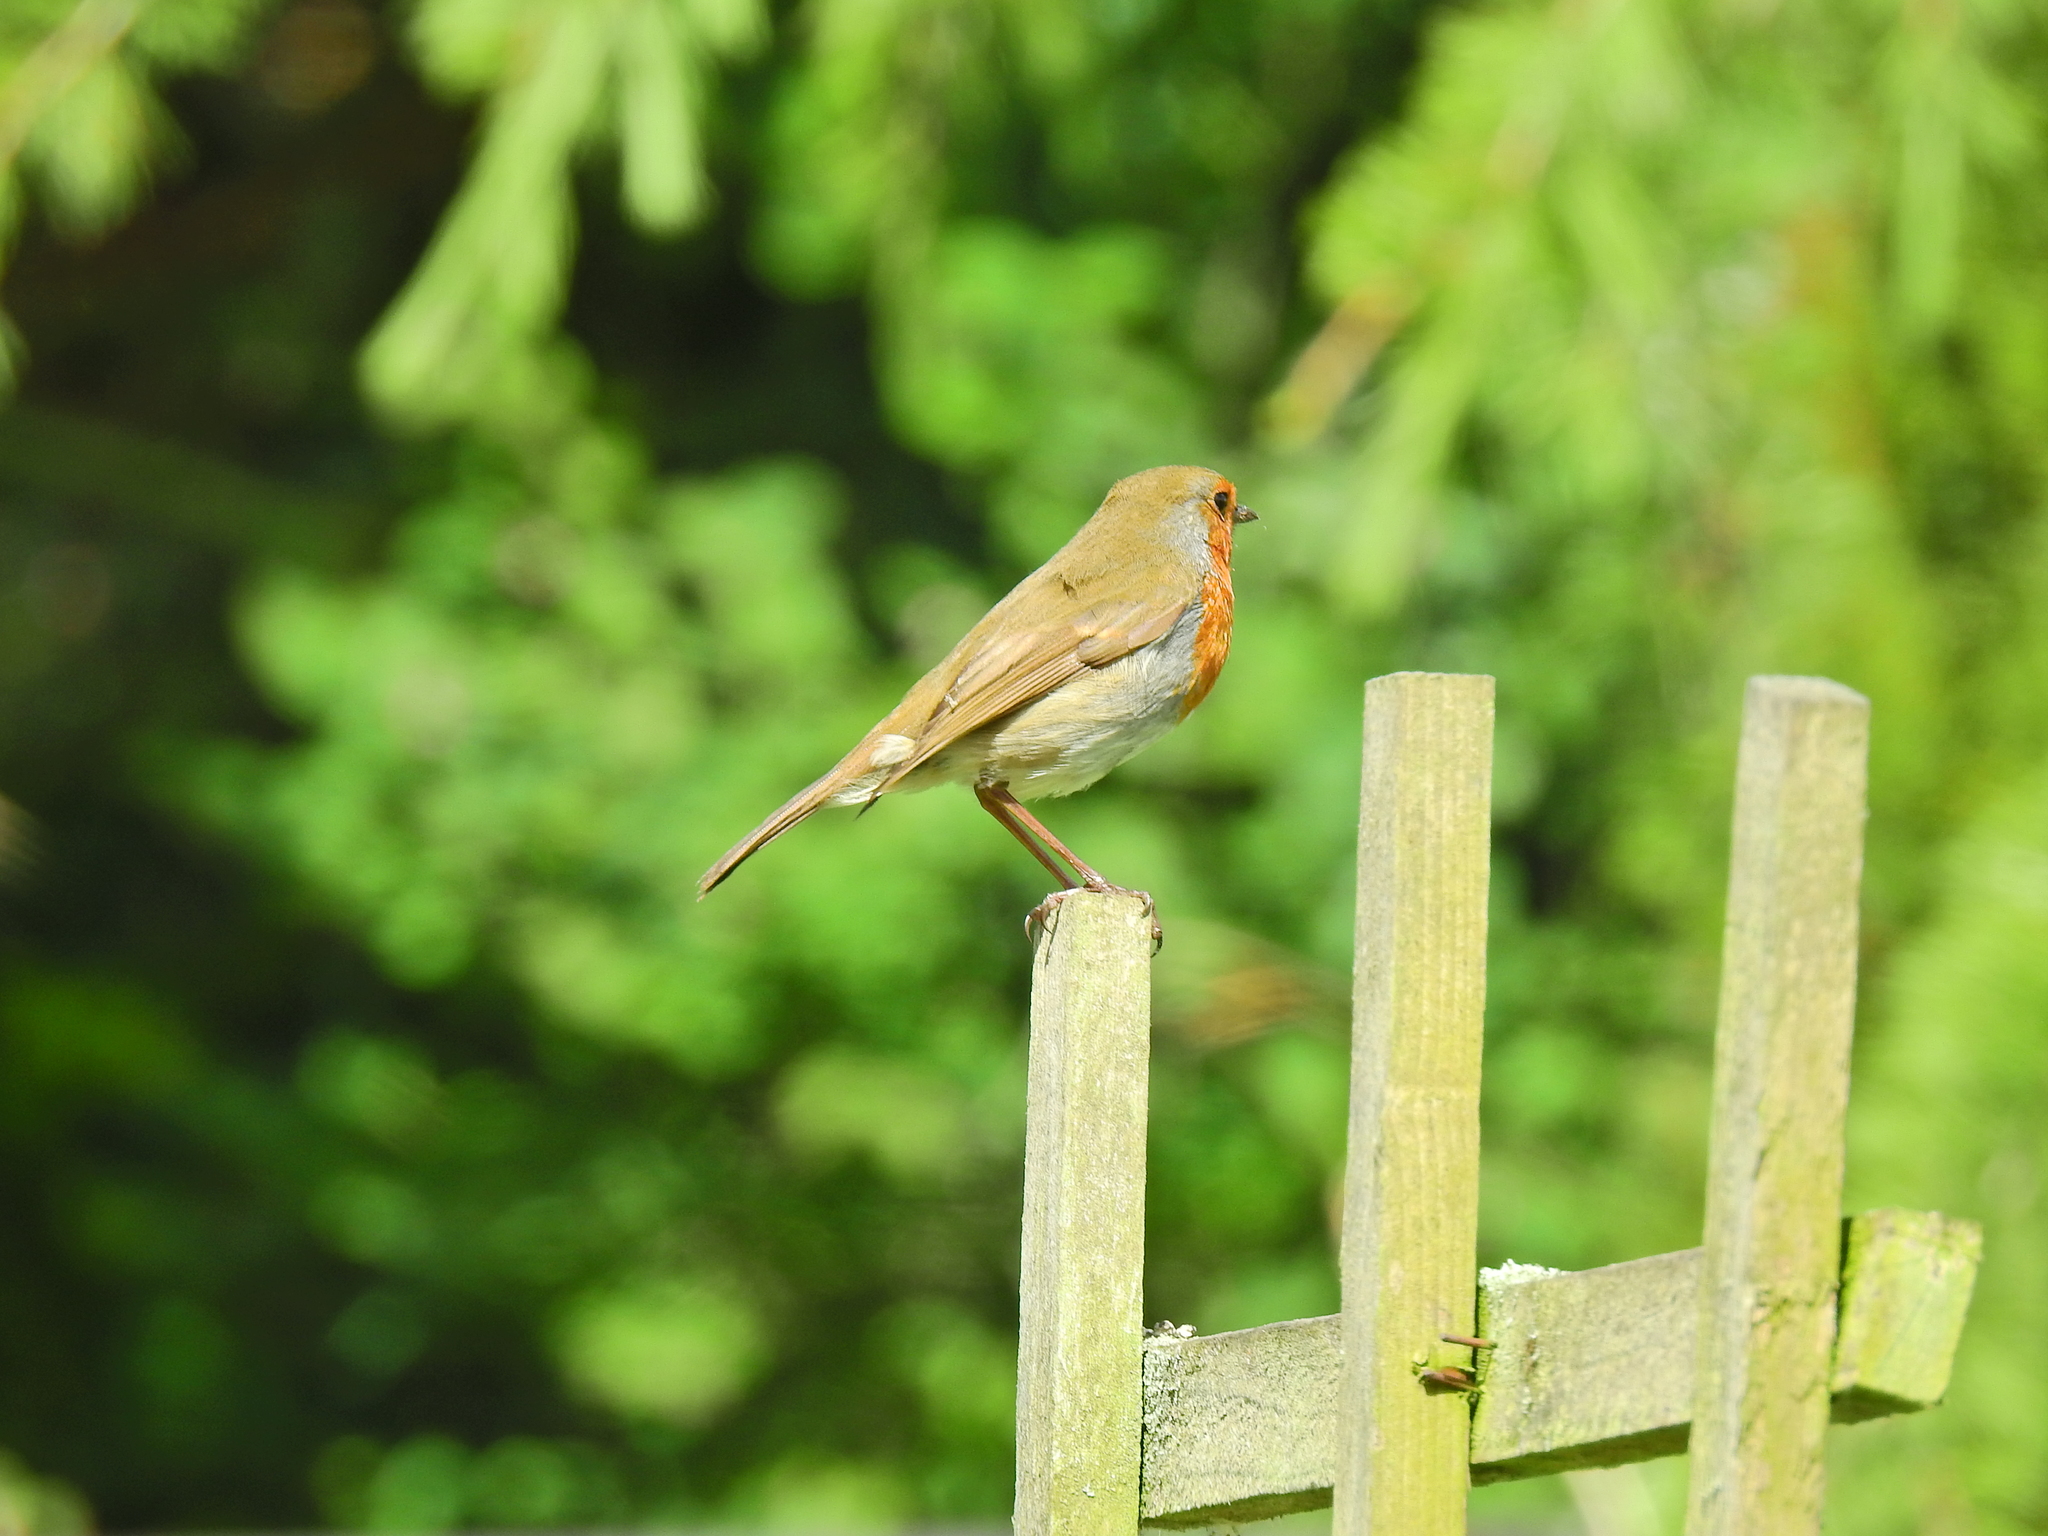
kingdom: Animalia
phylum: Chordata
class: Aves
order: Passeriformes
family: Muscicapidae
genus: Erithacus
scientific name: Erithacus rubecula
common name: European robin
